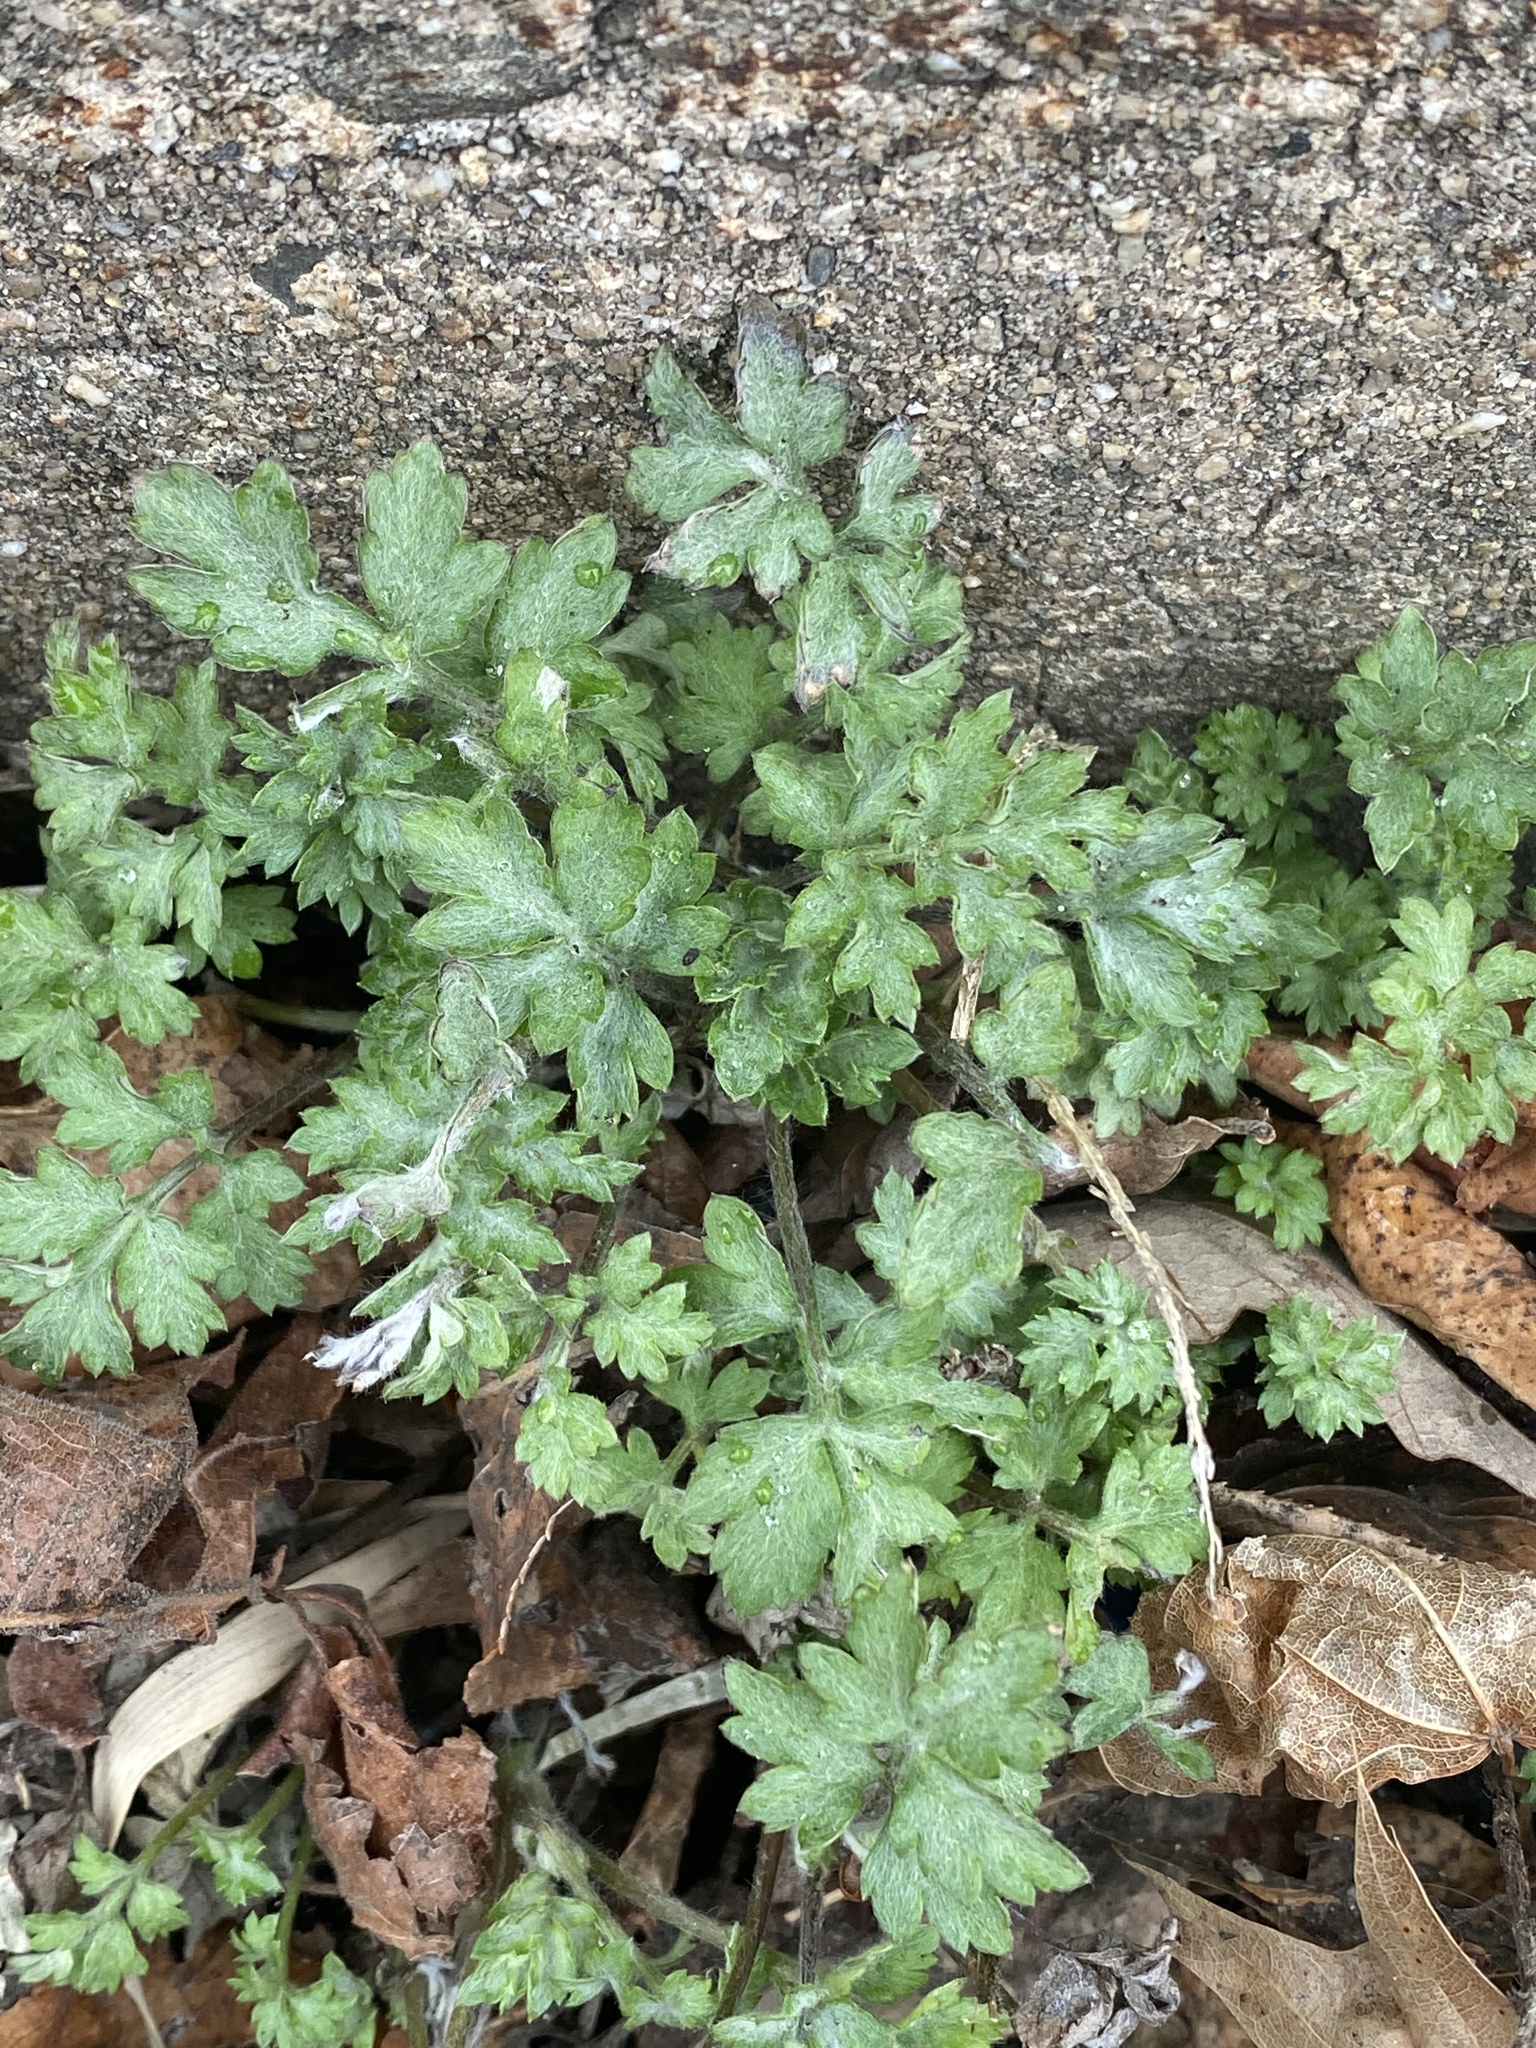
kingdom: Plantae
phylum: Tracheophyta
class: Magnoliopsida
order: Asterales
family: Asteraceae
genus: Artemisia
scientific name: Artemisia vulgaris
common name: Mugwort
